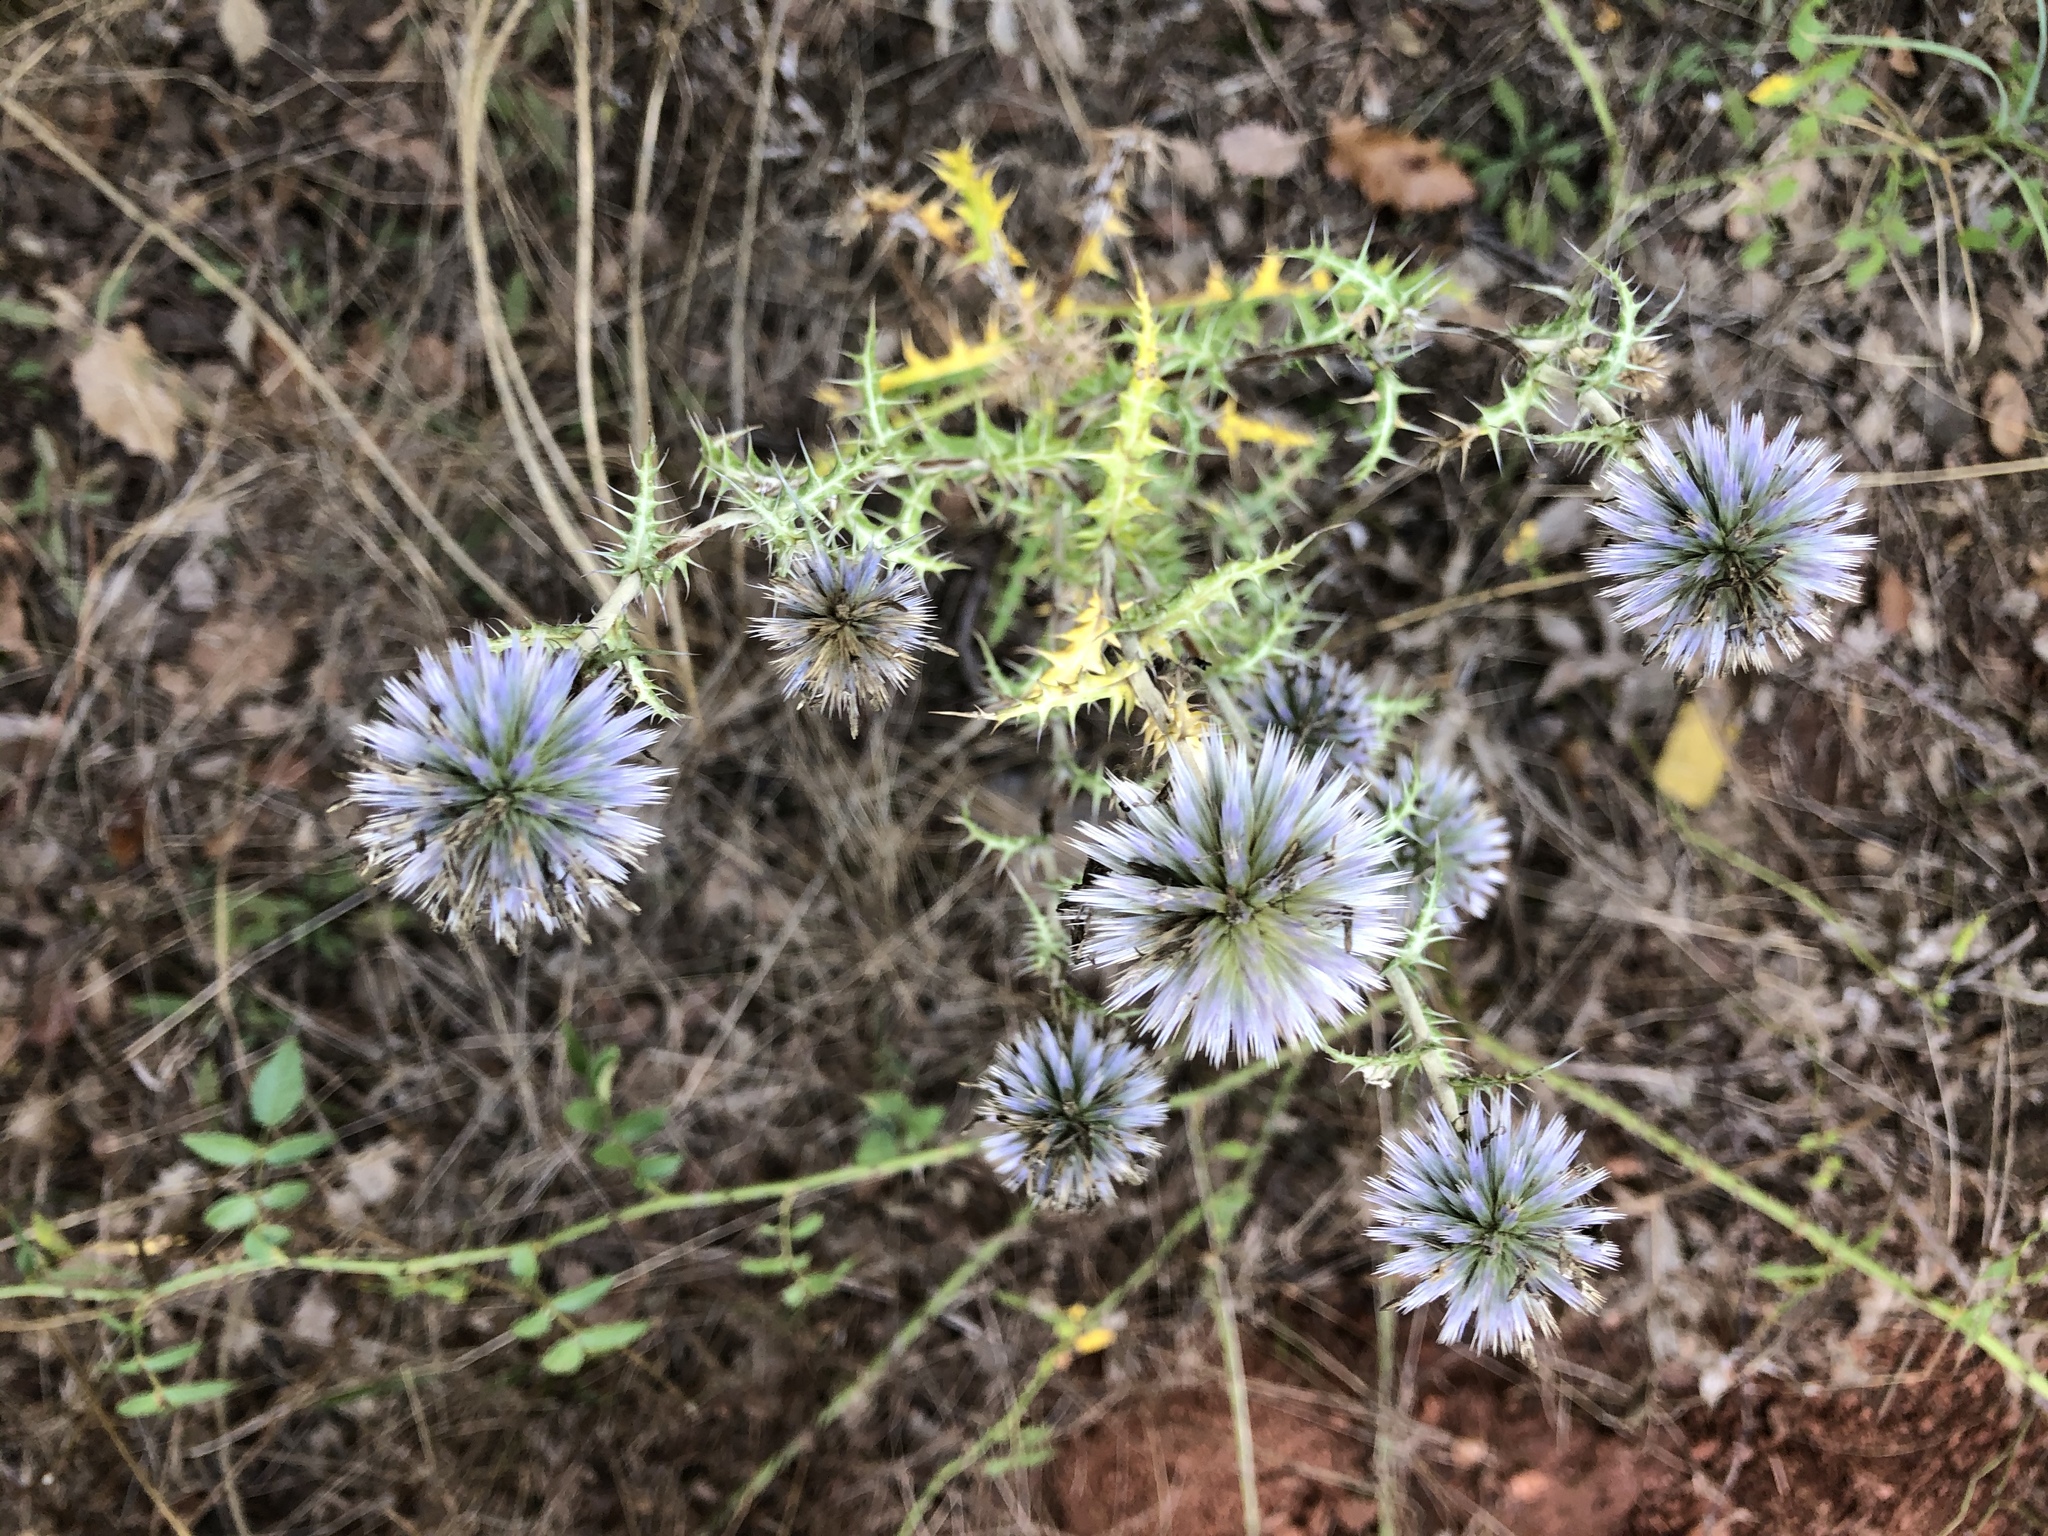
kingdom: Plantae
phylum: Tracheophyta
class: Magnoliopsida
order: Asterales
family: Asteraceae
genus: Echinops
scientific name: Echinops ritro
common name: Globe thistle
